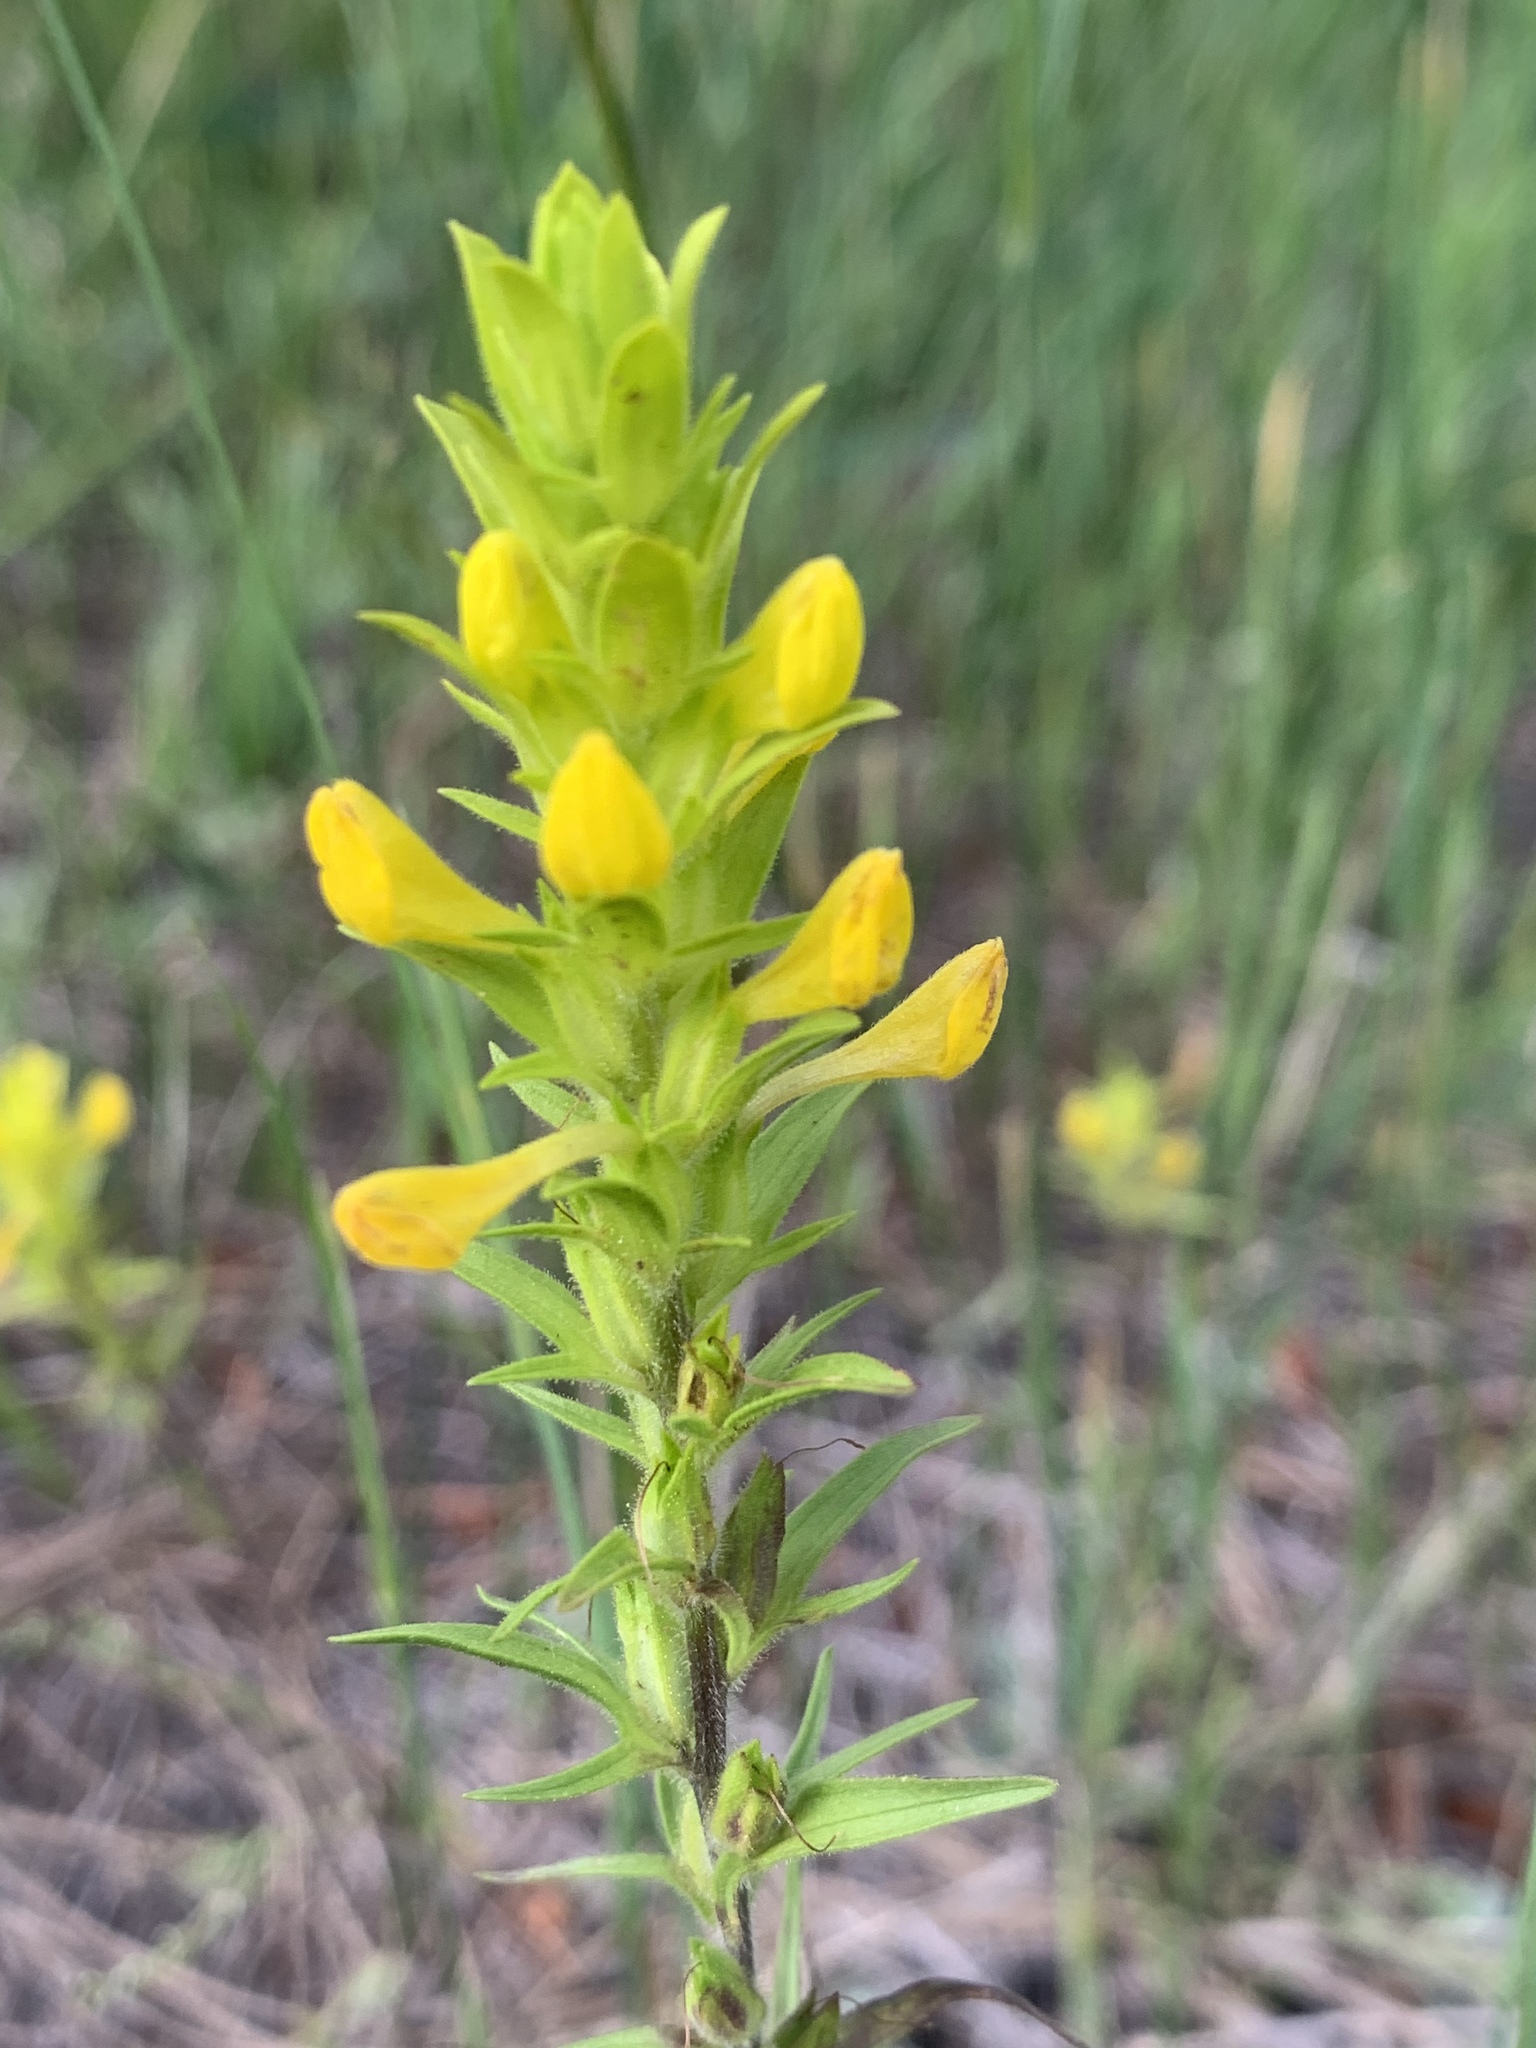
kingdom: Plantae
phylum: Tracheophyta
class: Magnoliopsida
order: Lamiales
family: Orobanchaceae
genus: Orthocarpus
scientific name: Orthocarpus luteus
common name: Golden-tongue owl's-clover
